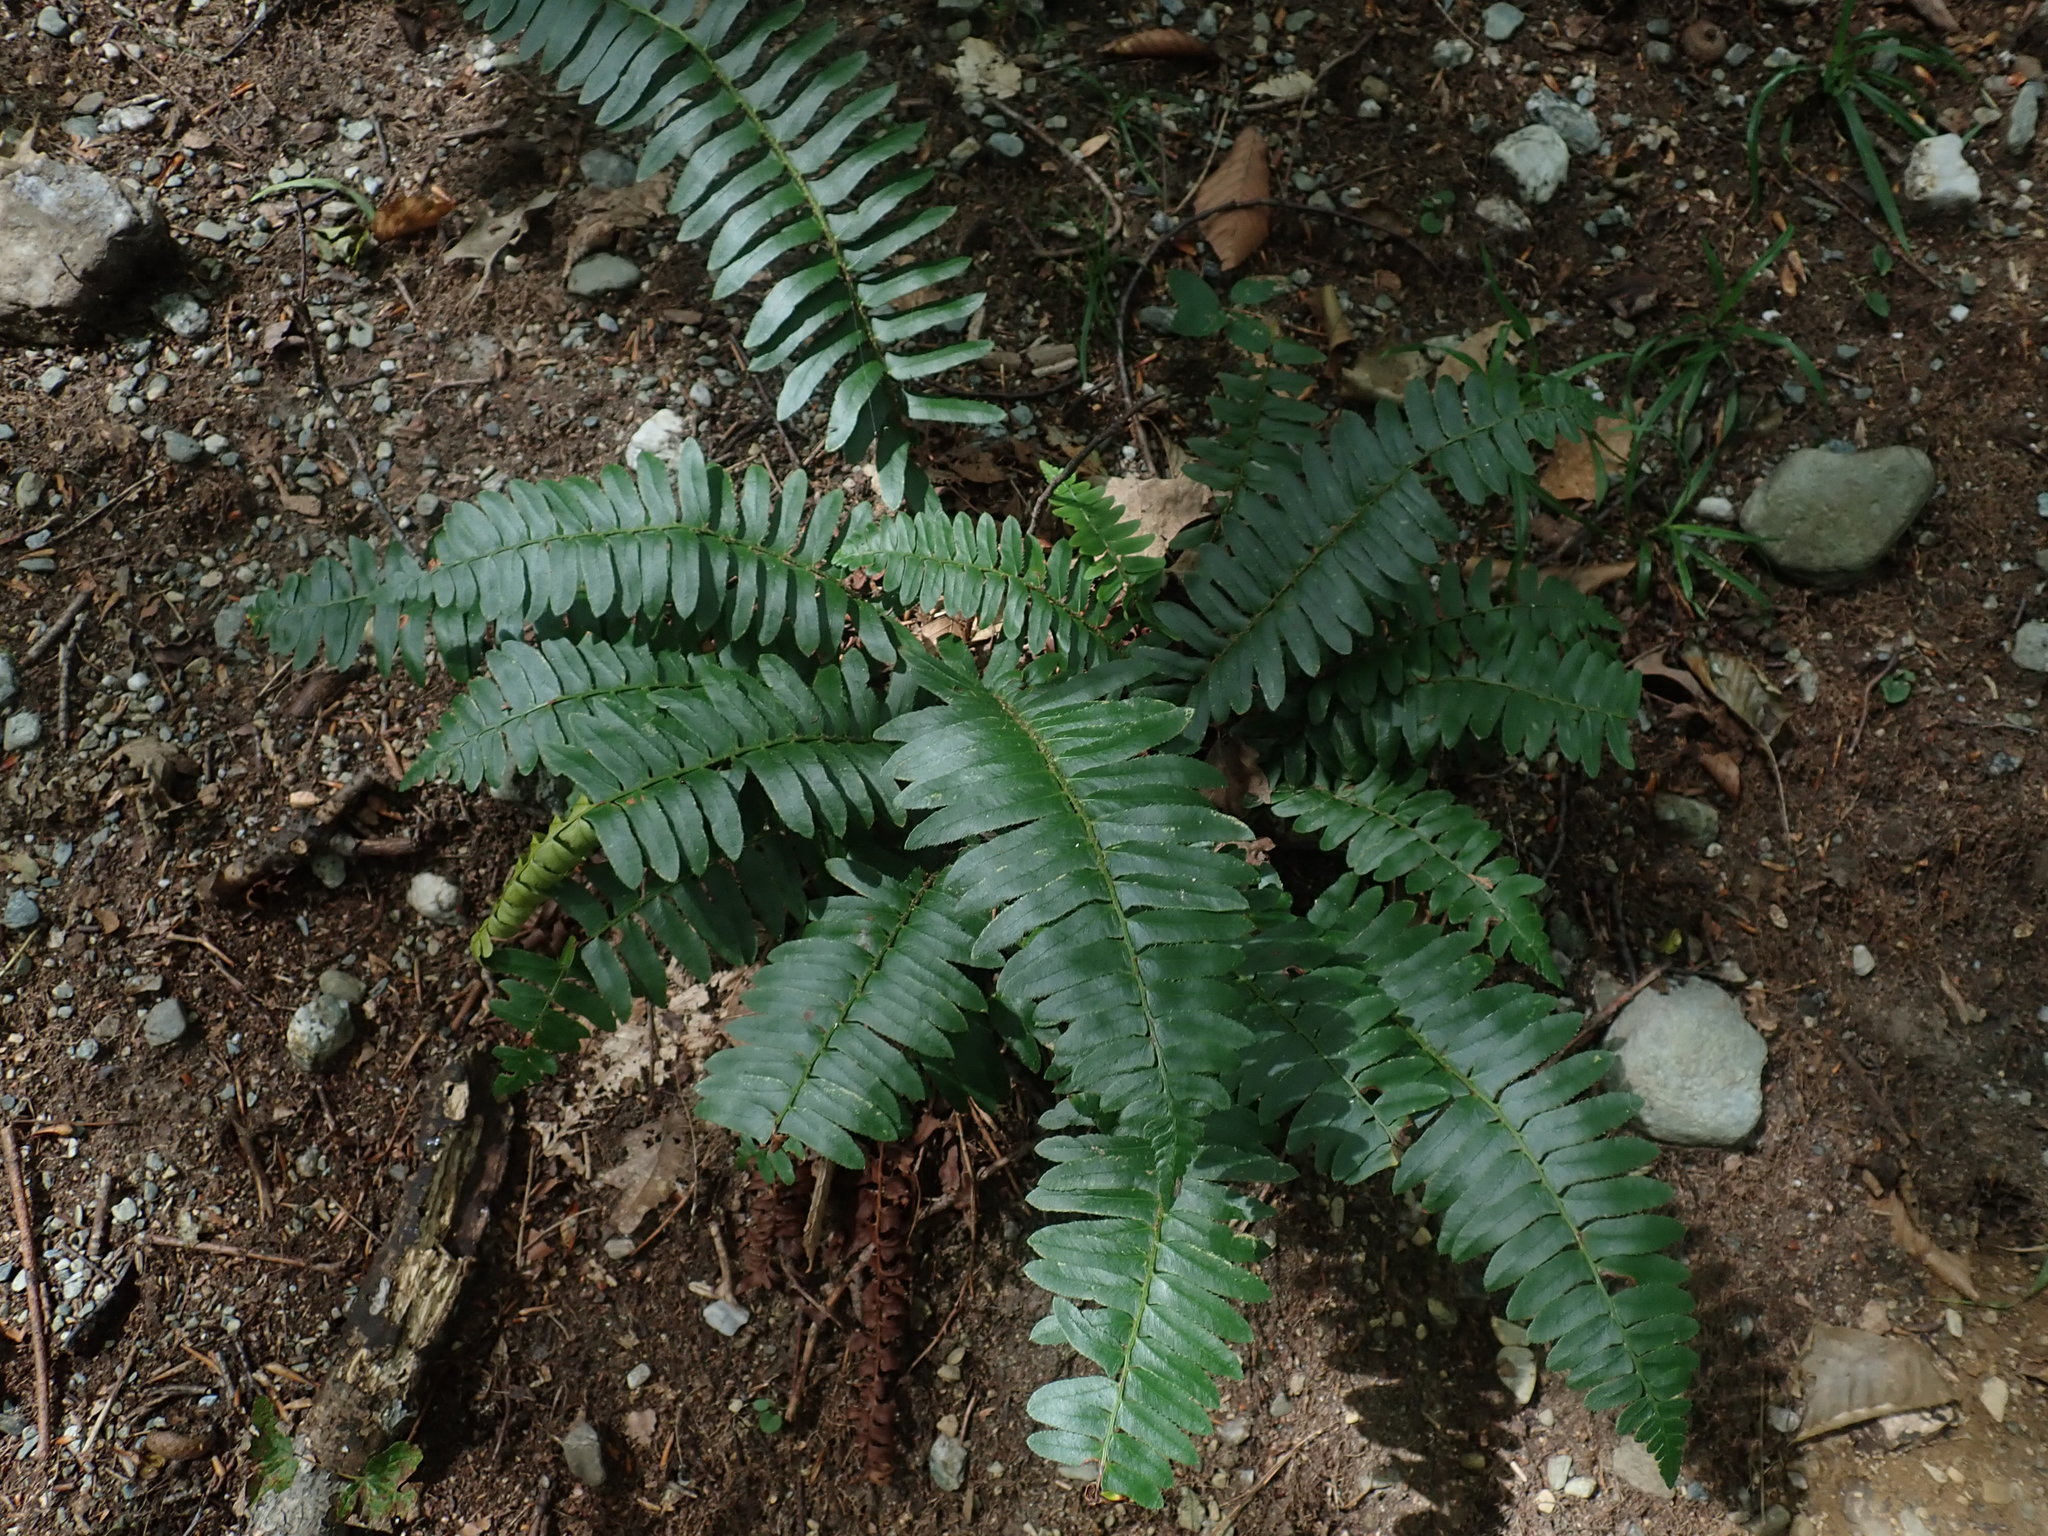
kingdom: Plantae
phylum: Tracheophyta
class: Polypodiopsida
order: Polypodiales
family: Dryopteridaceae
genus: Polystichum
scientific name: Polystichum acrostichoides
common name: Christmas fern
